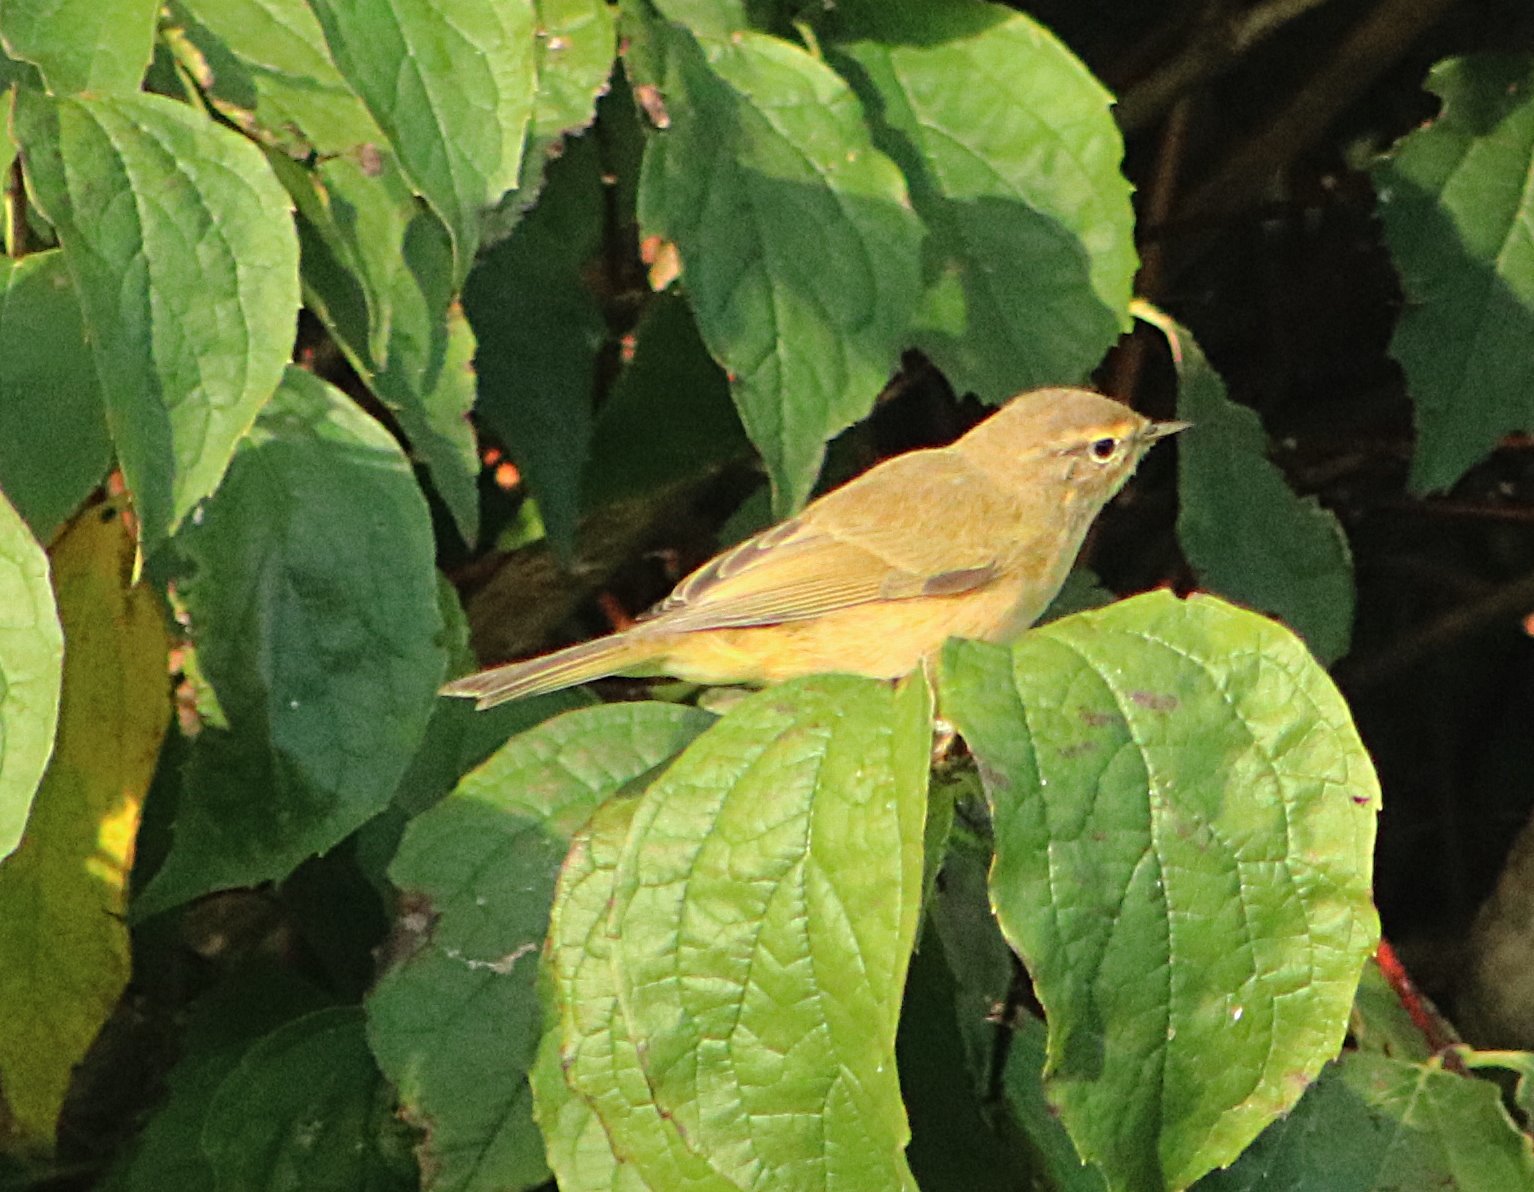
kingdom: Animalia
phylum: Chordata
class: Aves
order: Passeriformes
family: Phylloscopidae
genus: Phylloscopus
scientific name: Phylloscopus collybita
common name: Common chiffchaff
